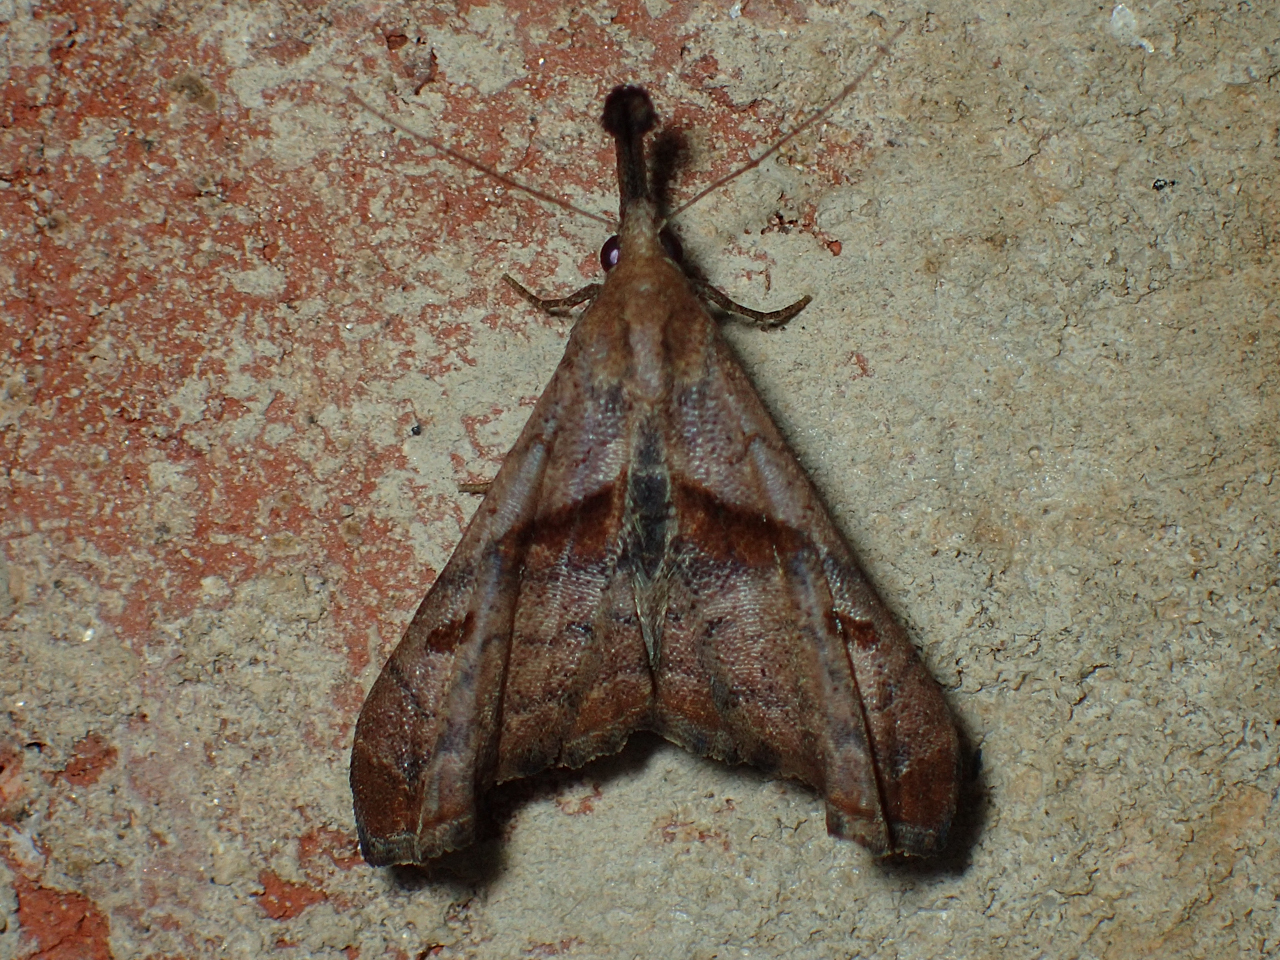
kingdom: Animalia
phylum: Arthropoda
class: Insecta
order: Lepidoptera
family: Erebidae
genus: Palthis
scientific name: Palthis angulalis
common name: Dark-spotted palthis moth
